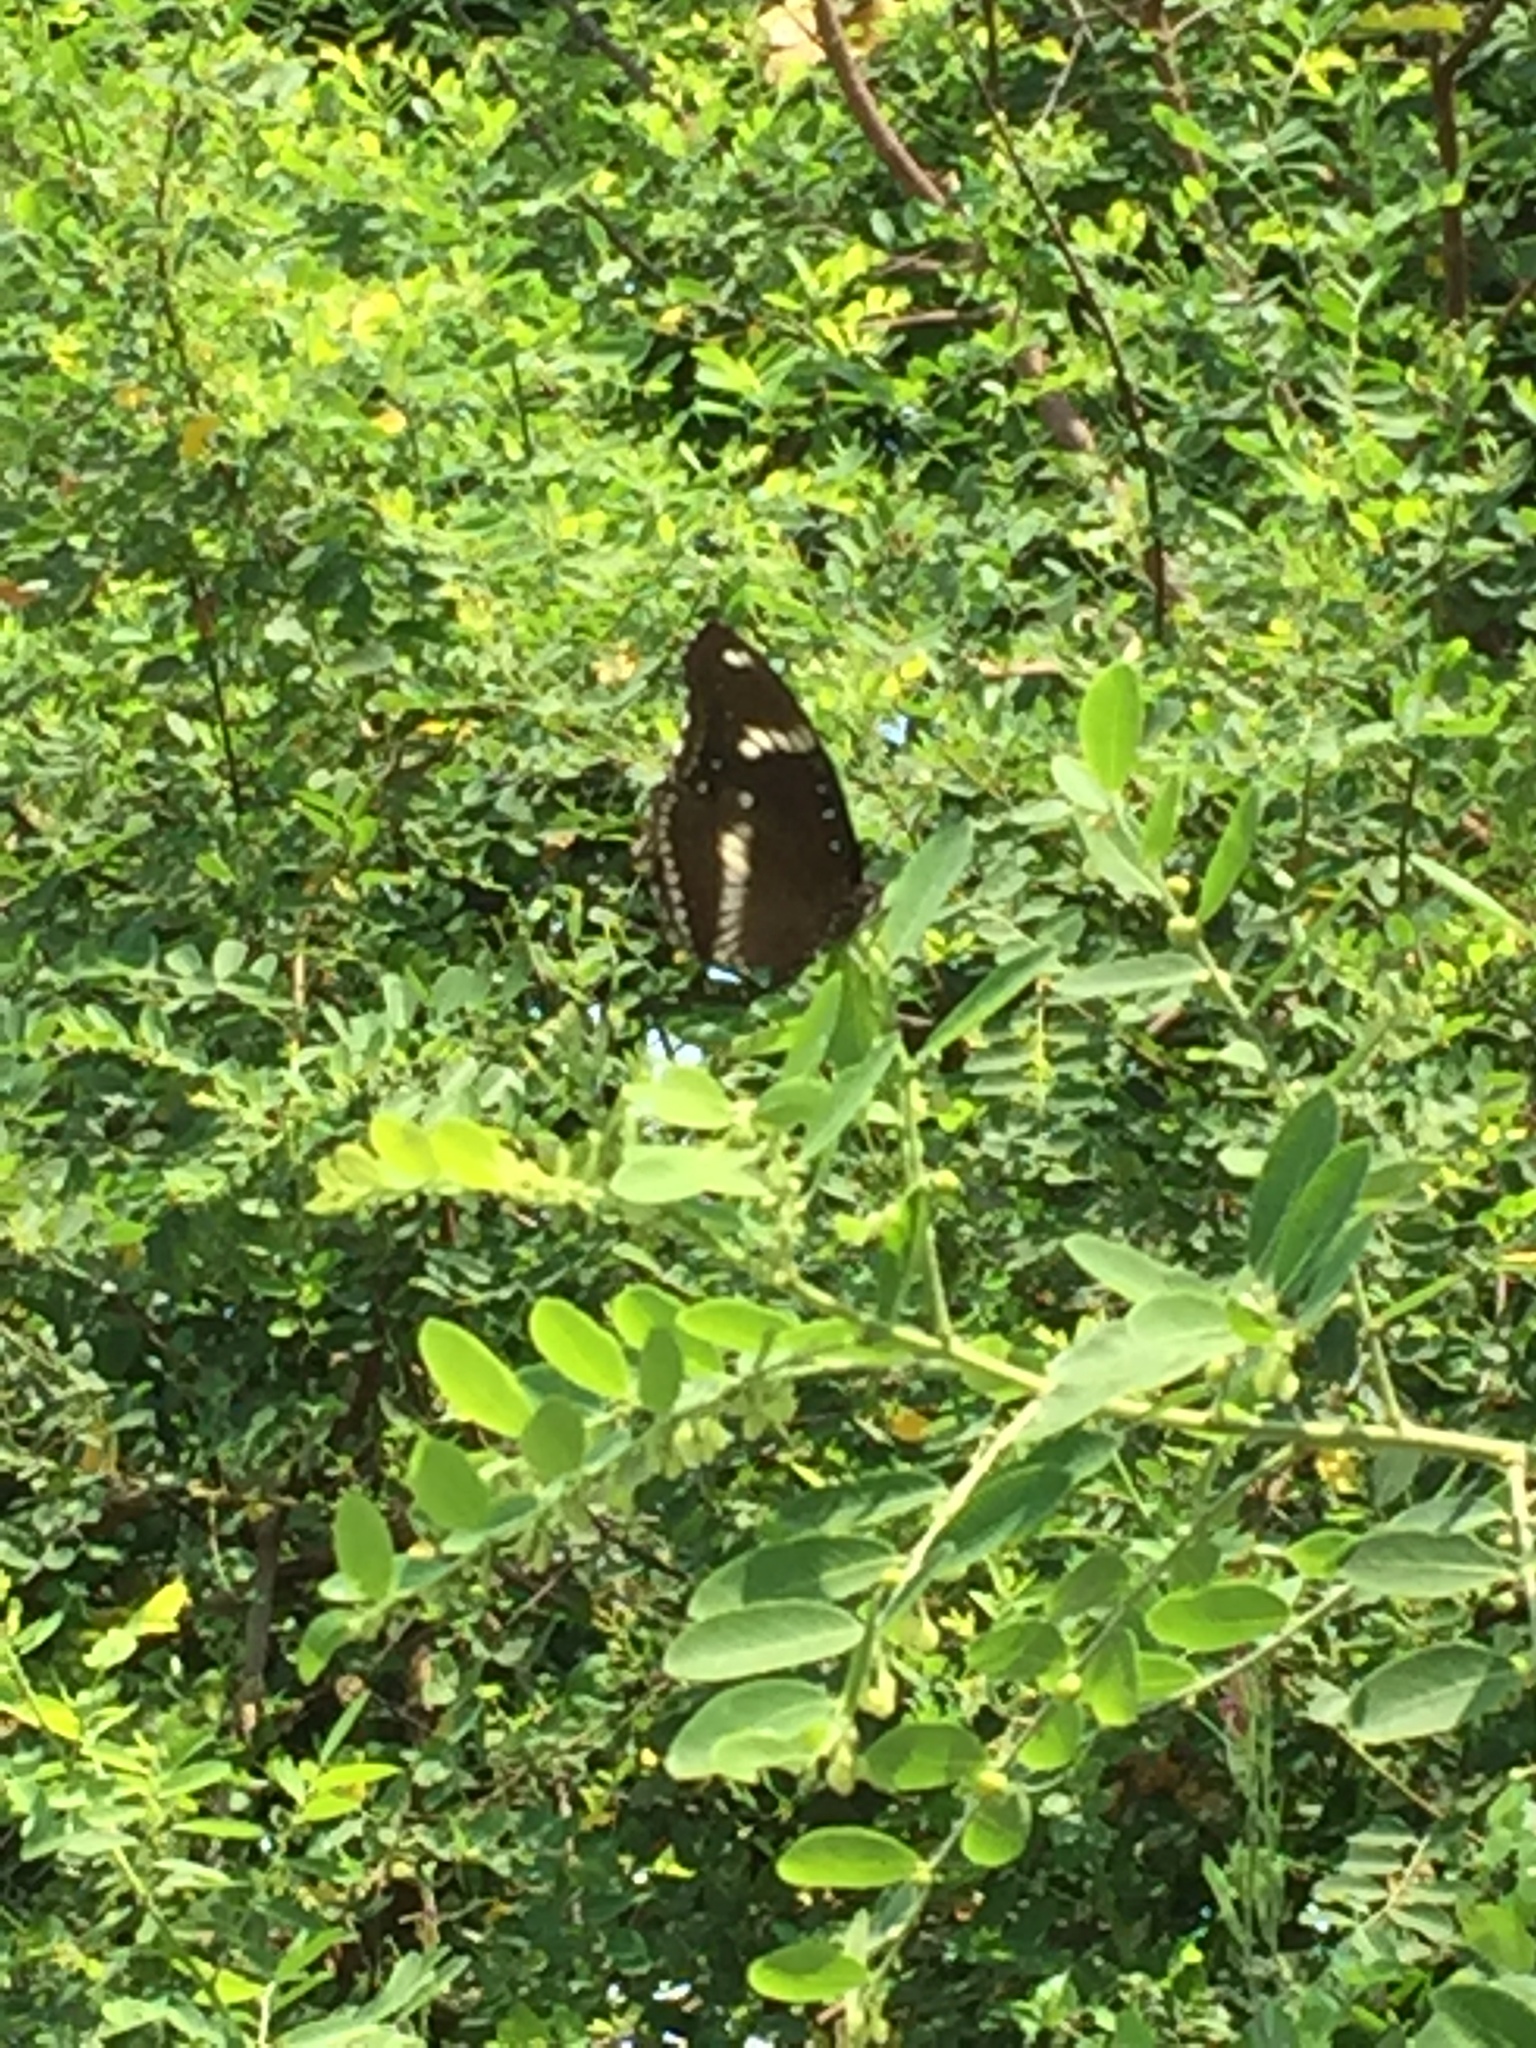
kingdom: Animalia
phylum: Arthropoda
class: Insecta
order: Lepidoptera
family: Nymphalidae
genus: Hypolimnas
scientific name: Hypolimnas bolina
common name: Great eggfly
